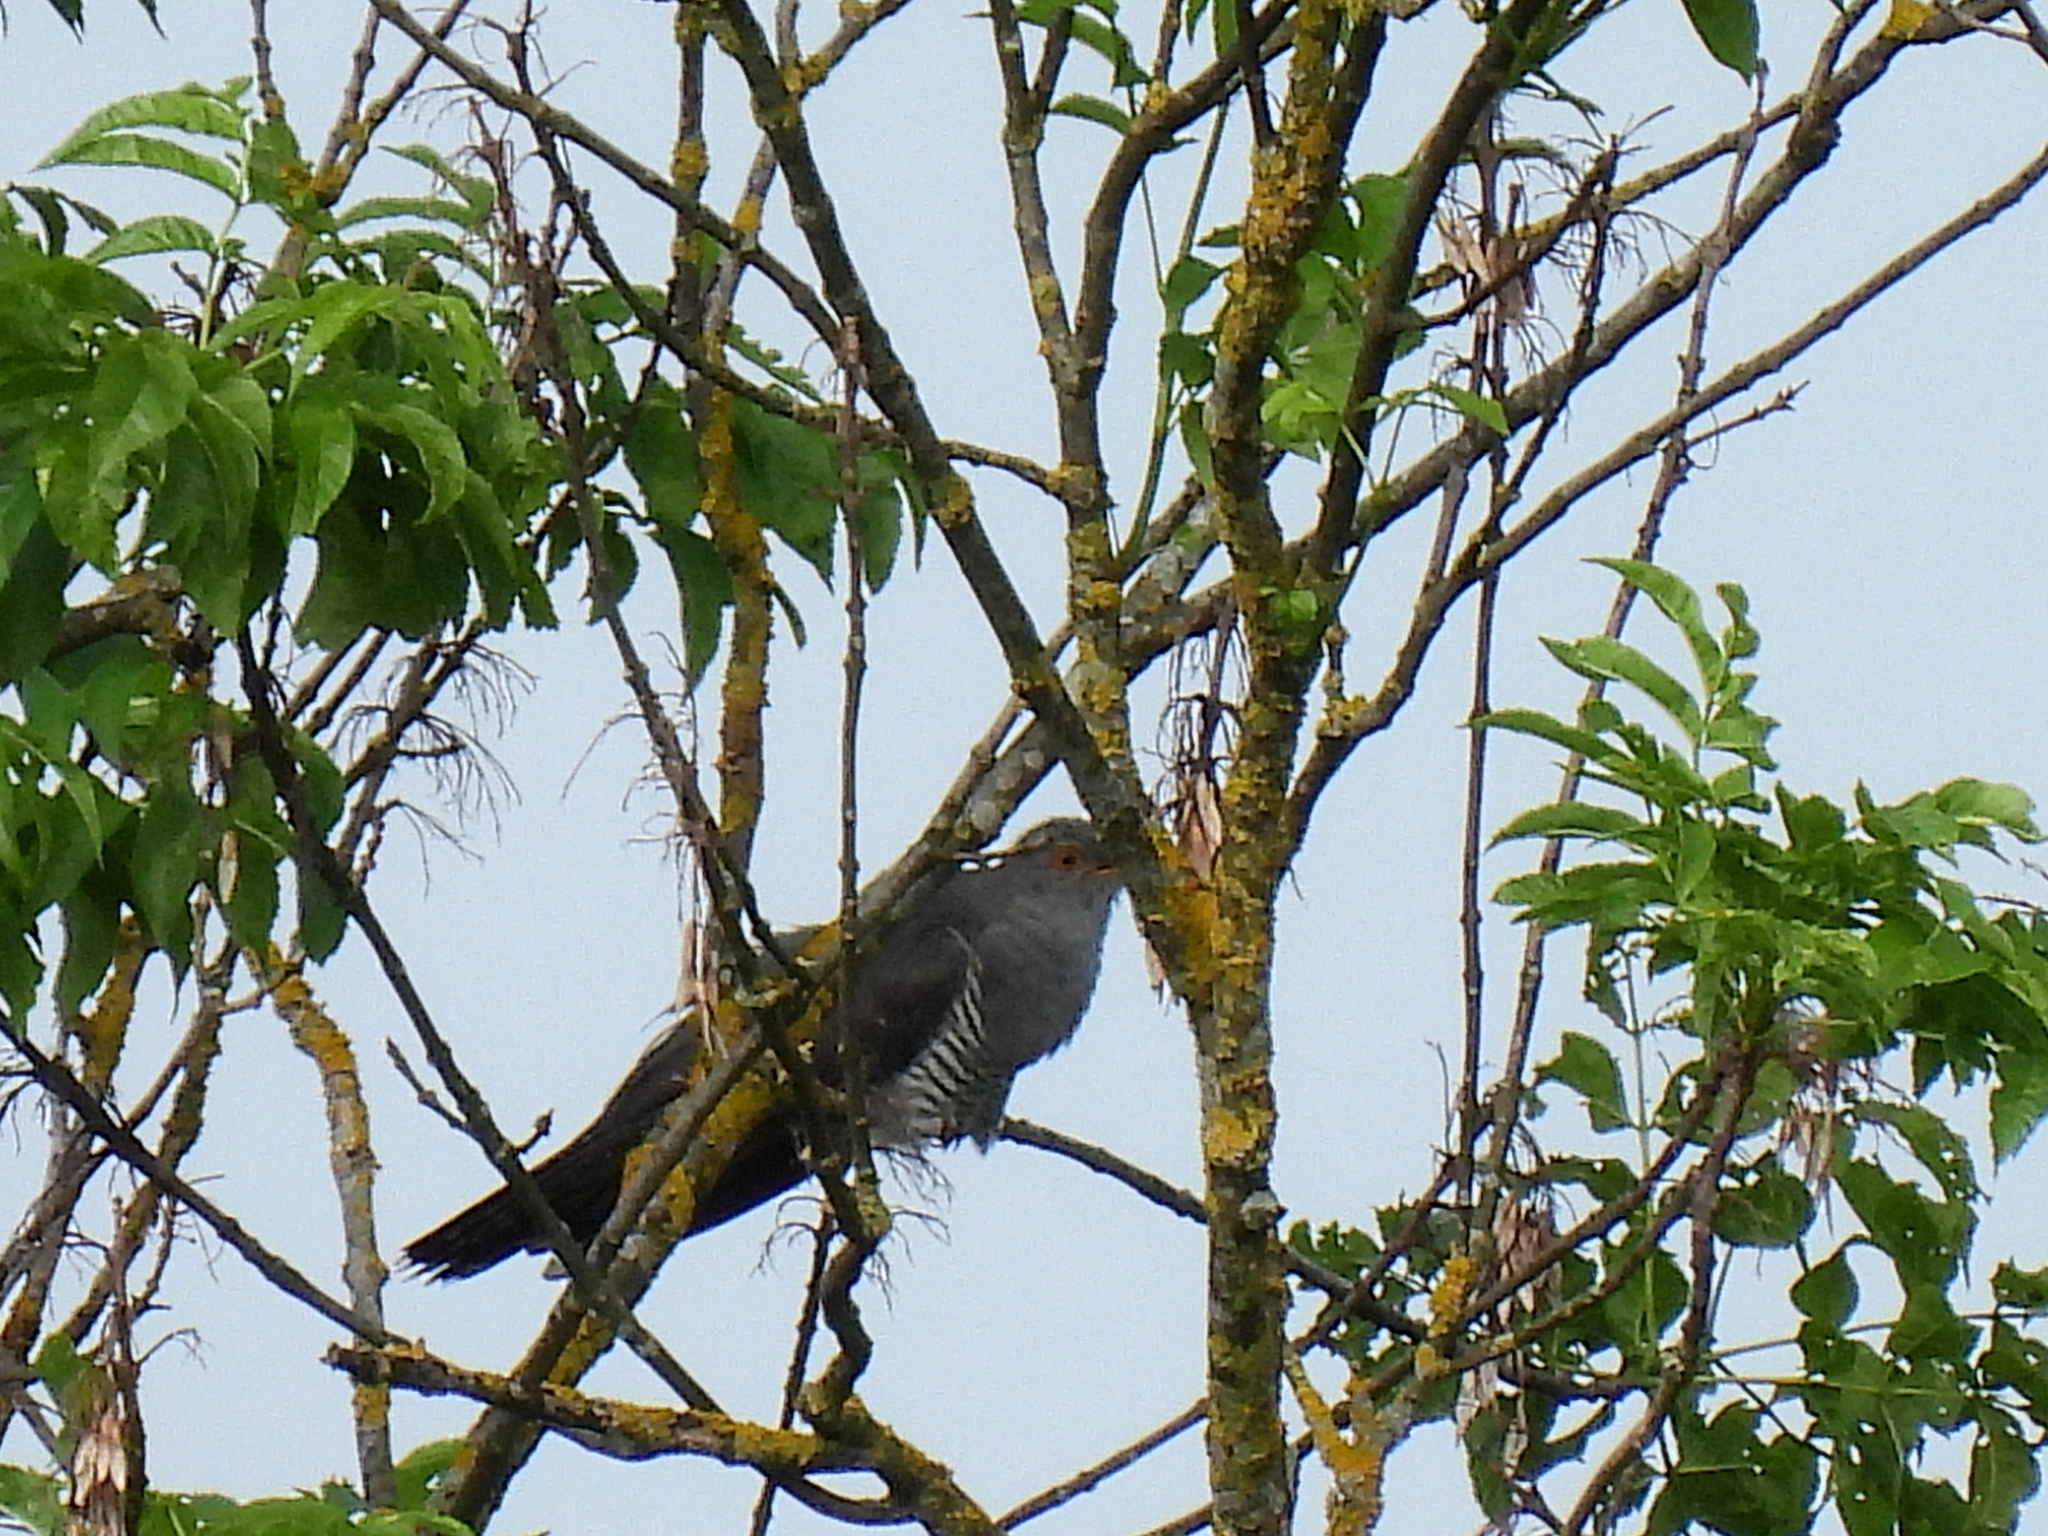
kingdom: Animalia
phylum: Chordata
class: Aves
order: Cuculiformes
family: Cuculidae
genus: Cuculus
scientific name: Cuculus canorus
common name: Common cuckoo
